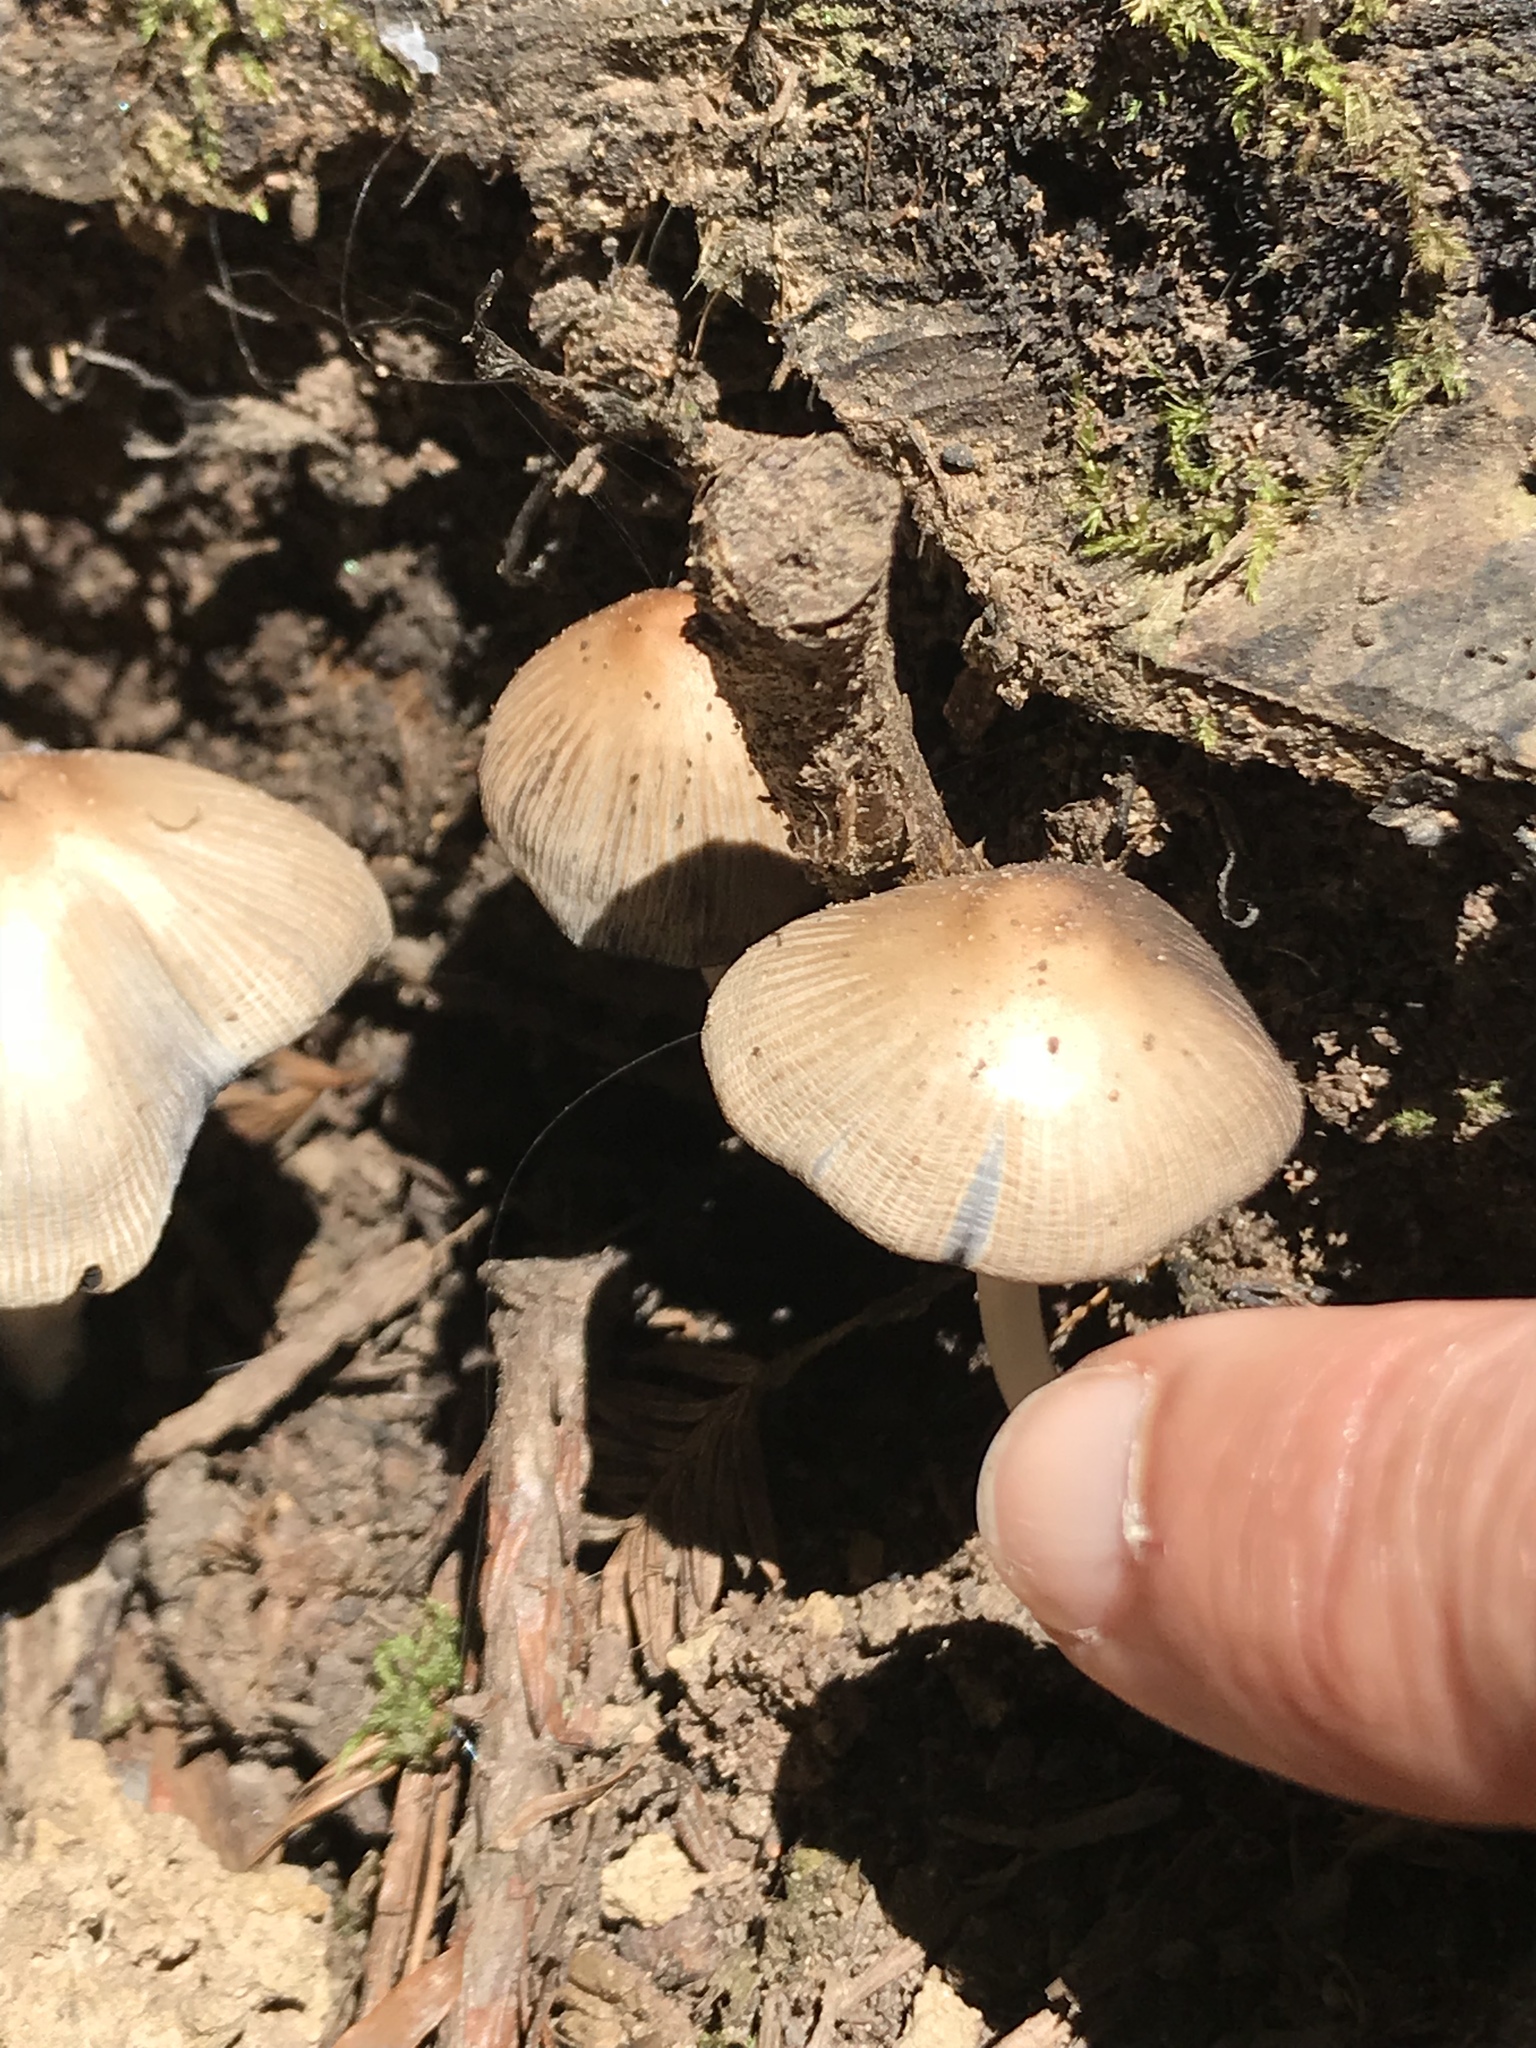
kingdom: Fungi
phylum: Basidiomycota
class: Agaricomycetes
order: Agaricales
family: Psathyrellaceae
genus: Coprinellus
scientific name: Coprinellus micaceus
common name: Glistening ink-cap
